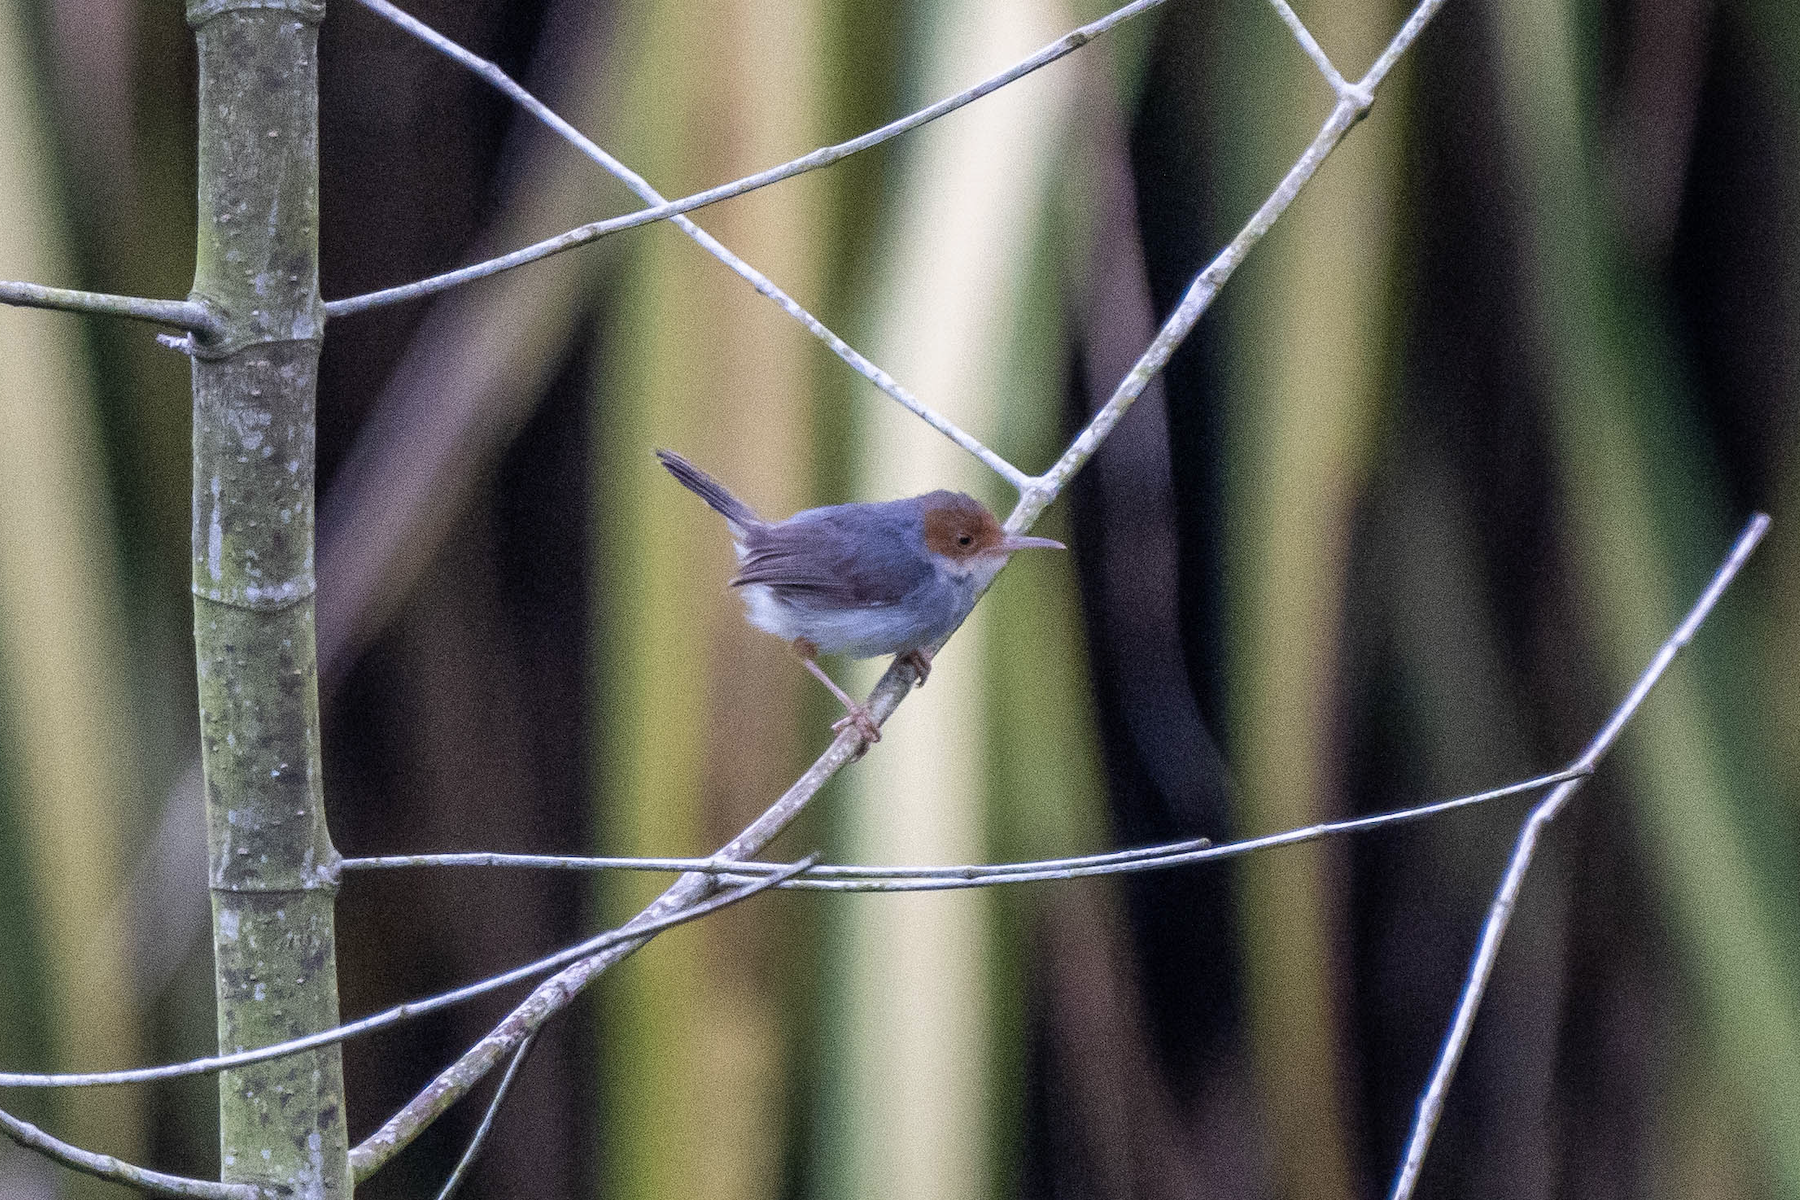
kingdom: Animalia
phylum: Chordata
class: Aves
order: Passeriformes
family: Cisticolidae
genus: Orthotomus
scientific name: Orthotomus ruficeps
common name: Ashy tailorbird
